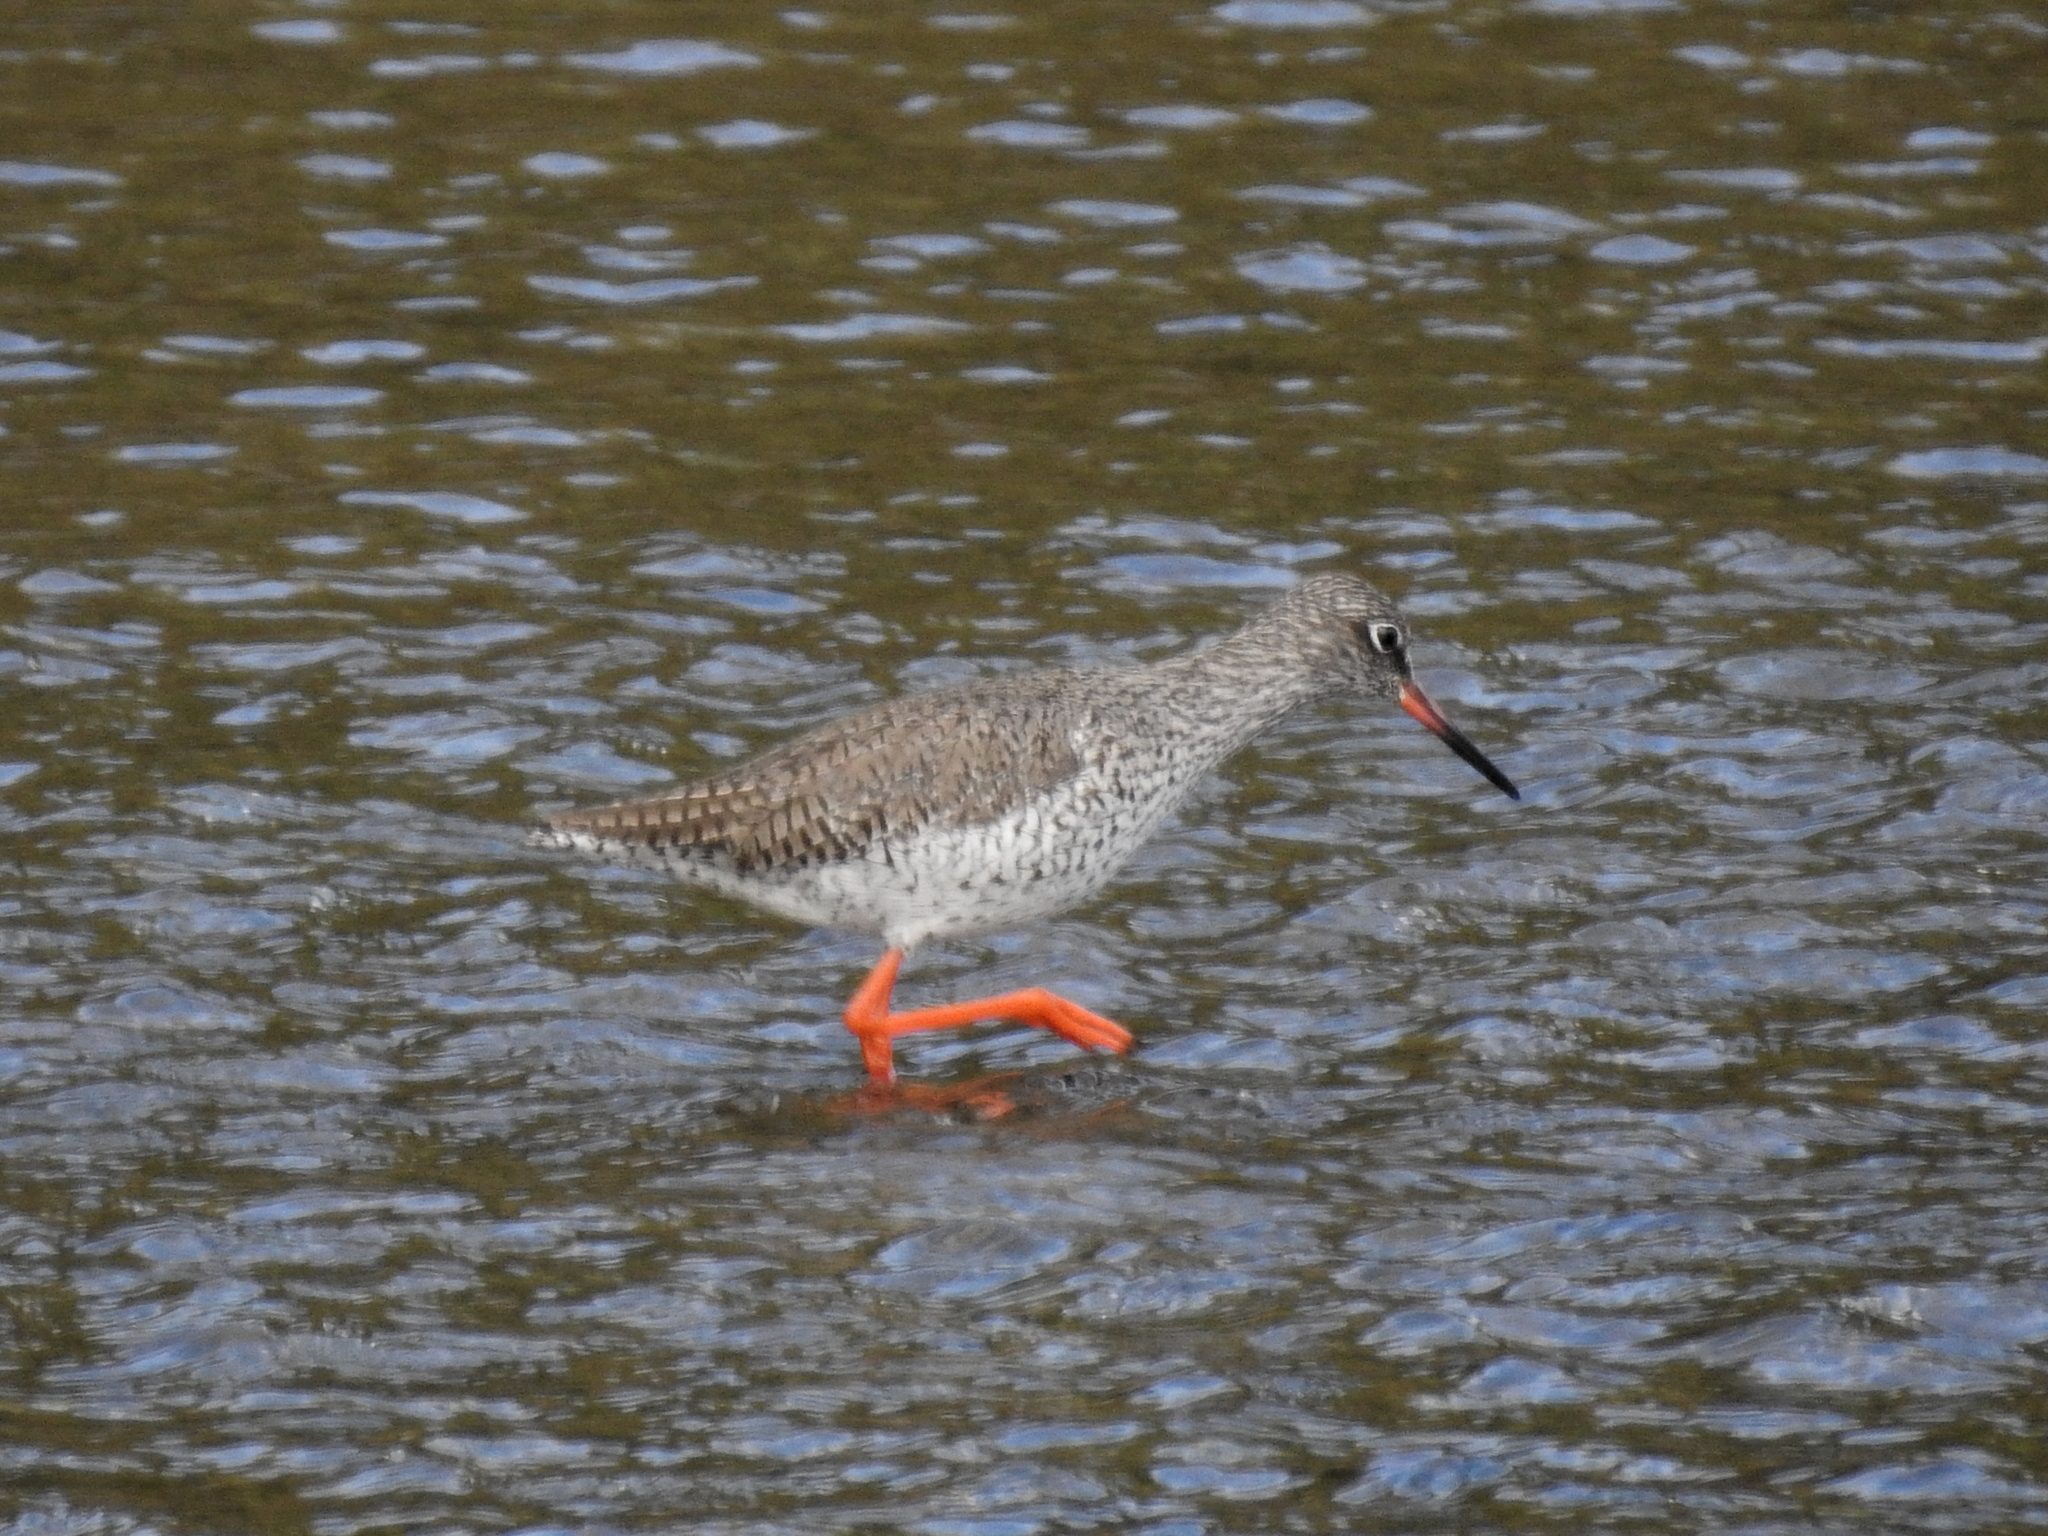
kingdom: Animalia
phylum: Chordata
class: Aves
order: Charadriiformes
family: Scolopacidae
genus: Tringa
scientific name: Tringa totanus
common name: Common redshank
